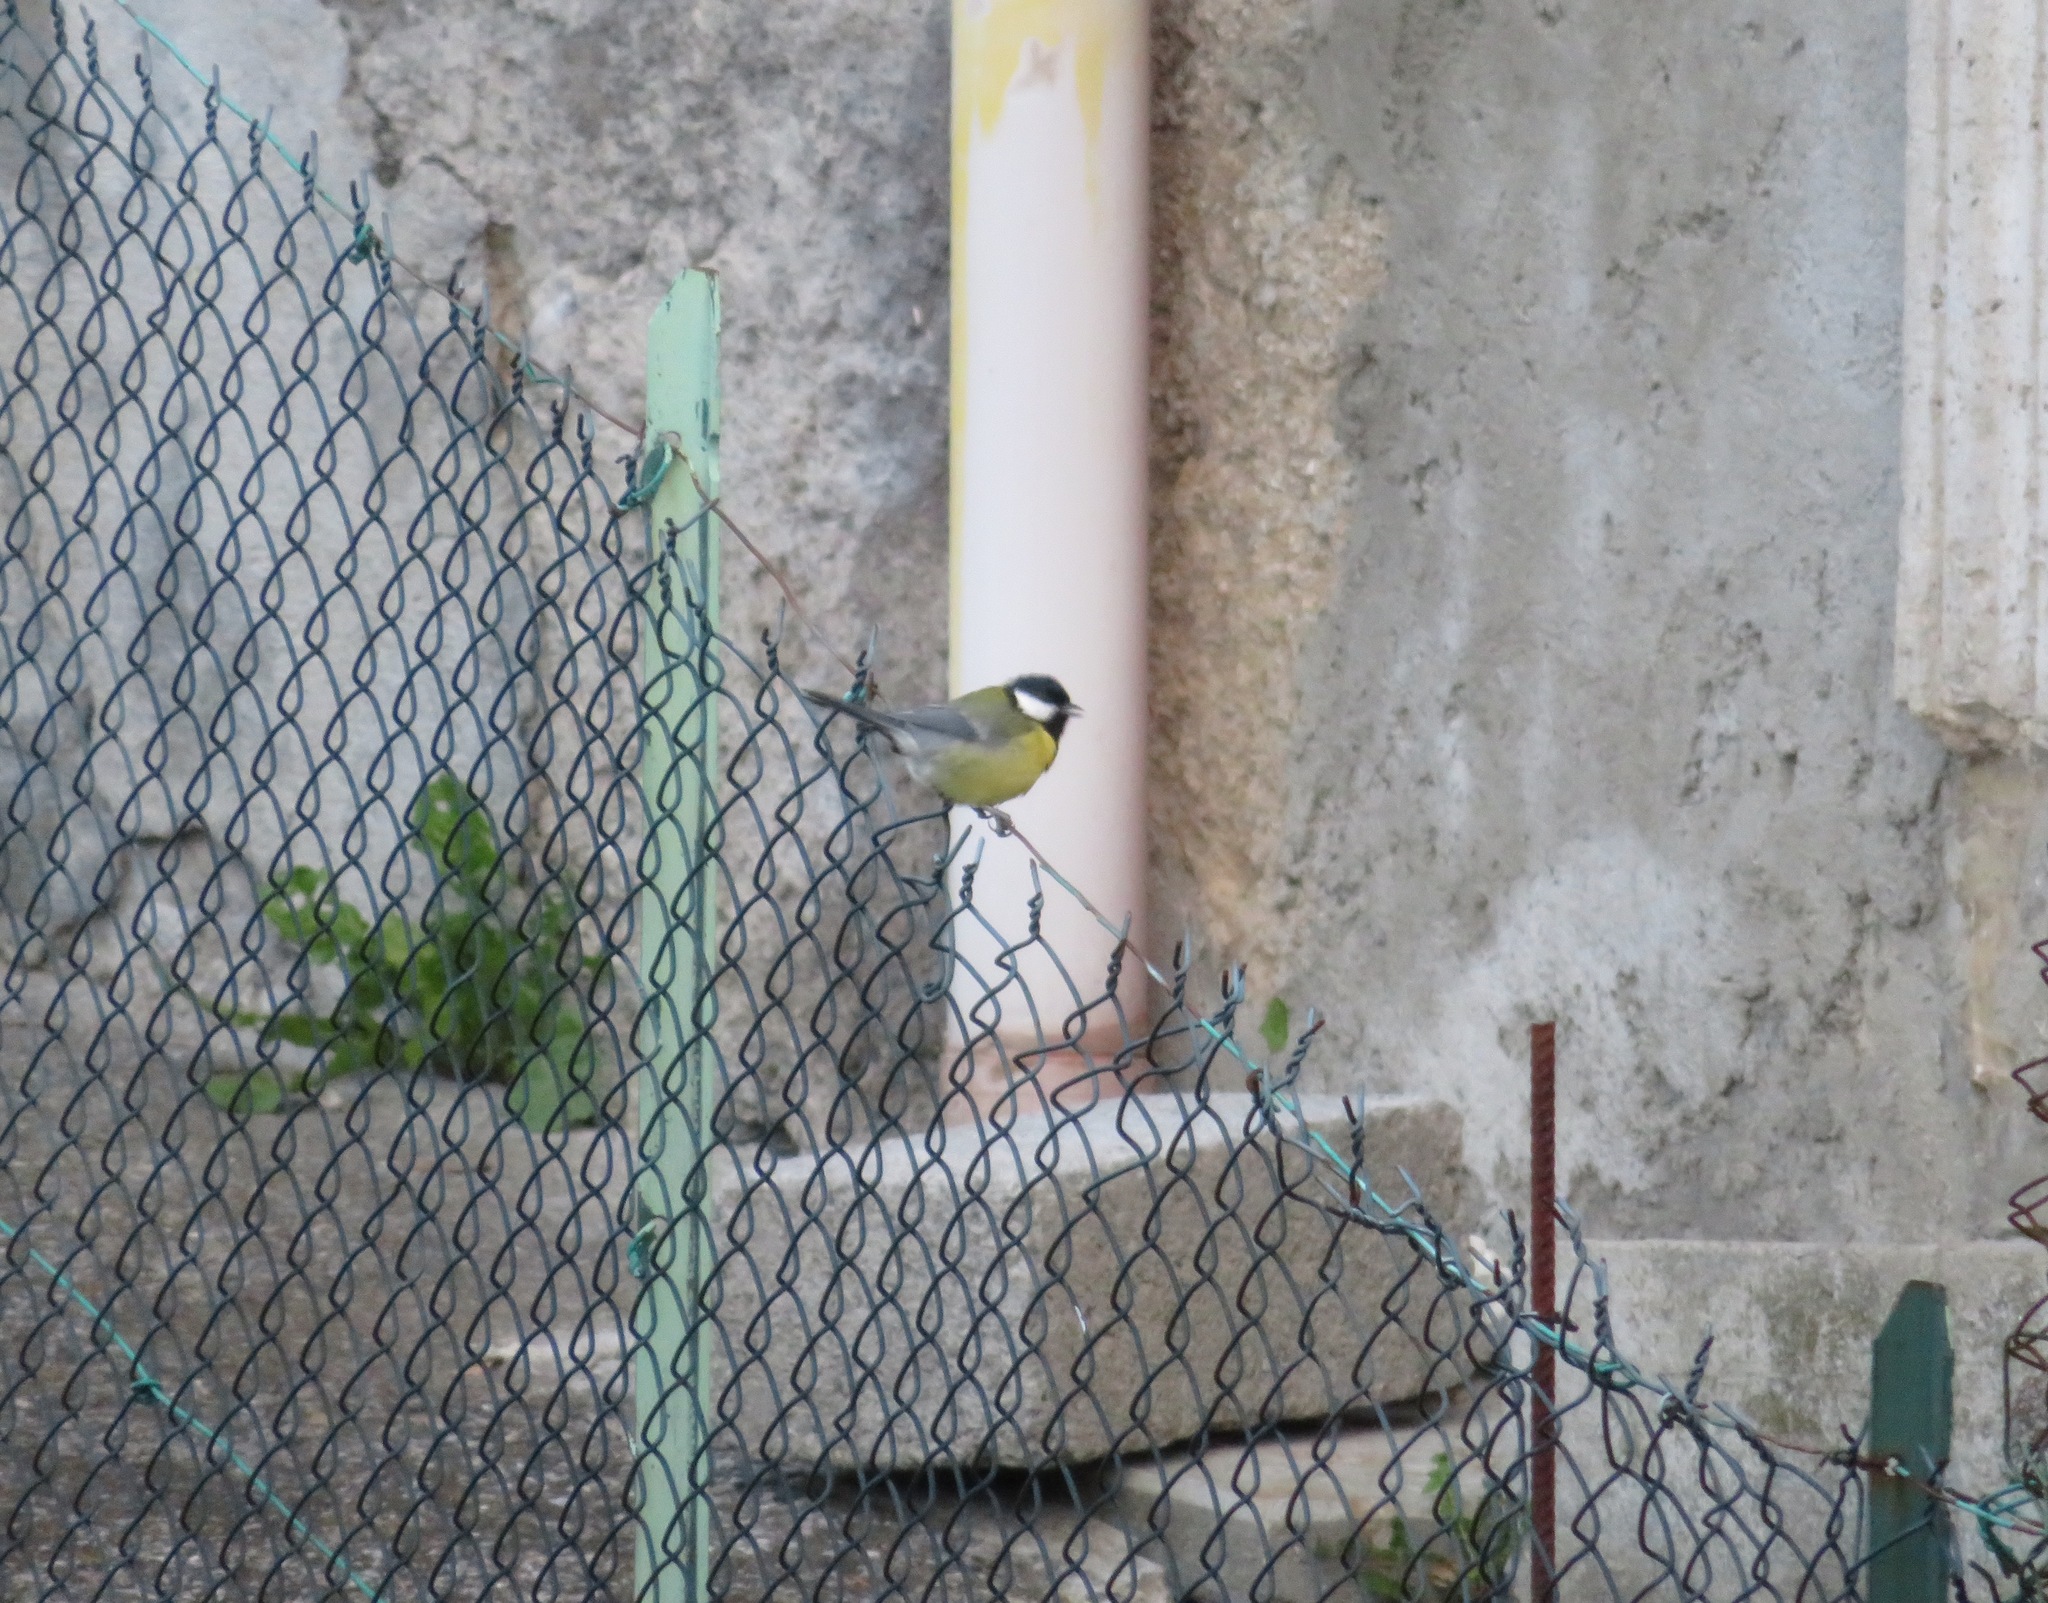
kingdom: Animalia
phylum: Chordata
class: Aves
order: Passeriformes
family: Paridae
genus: Parus
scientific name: Parus major
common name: Great tit
